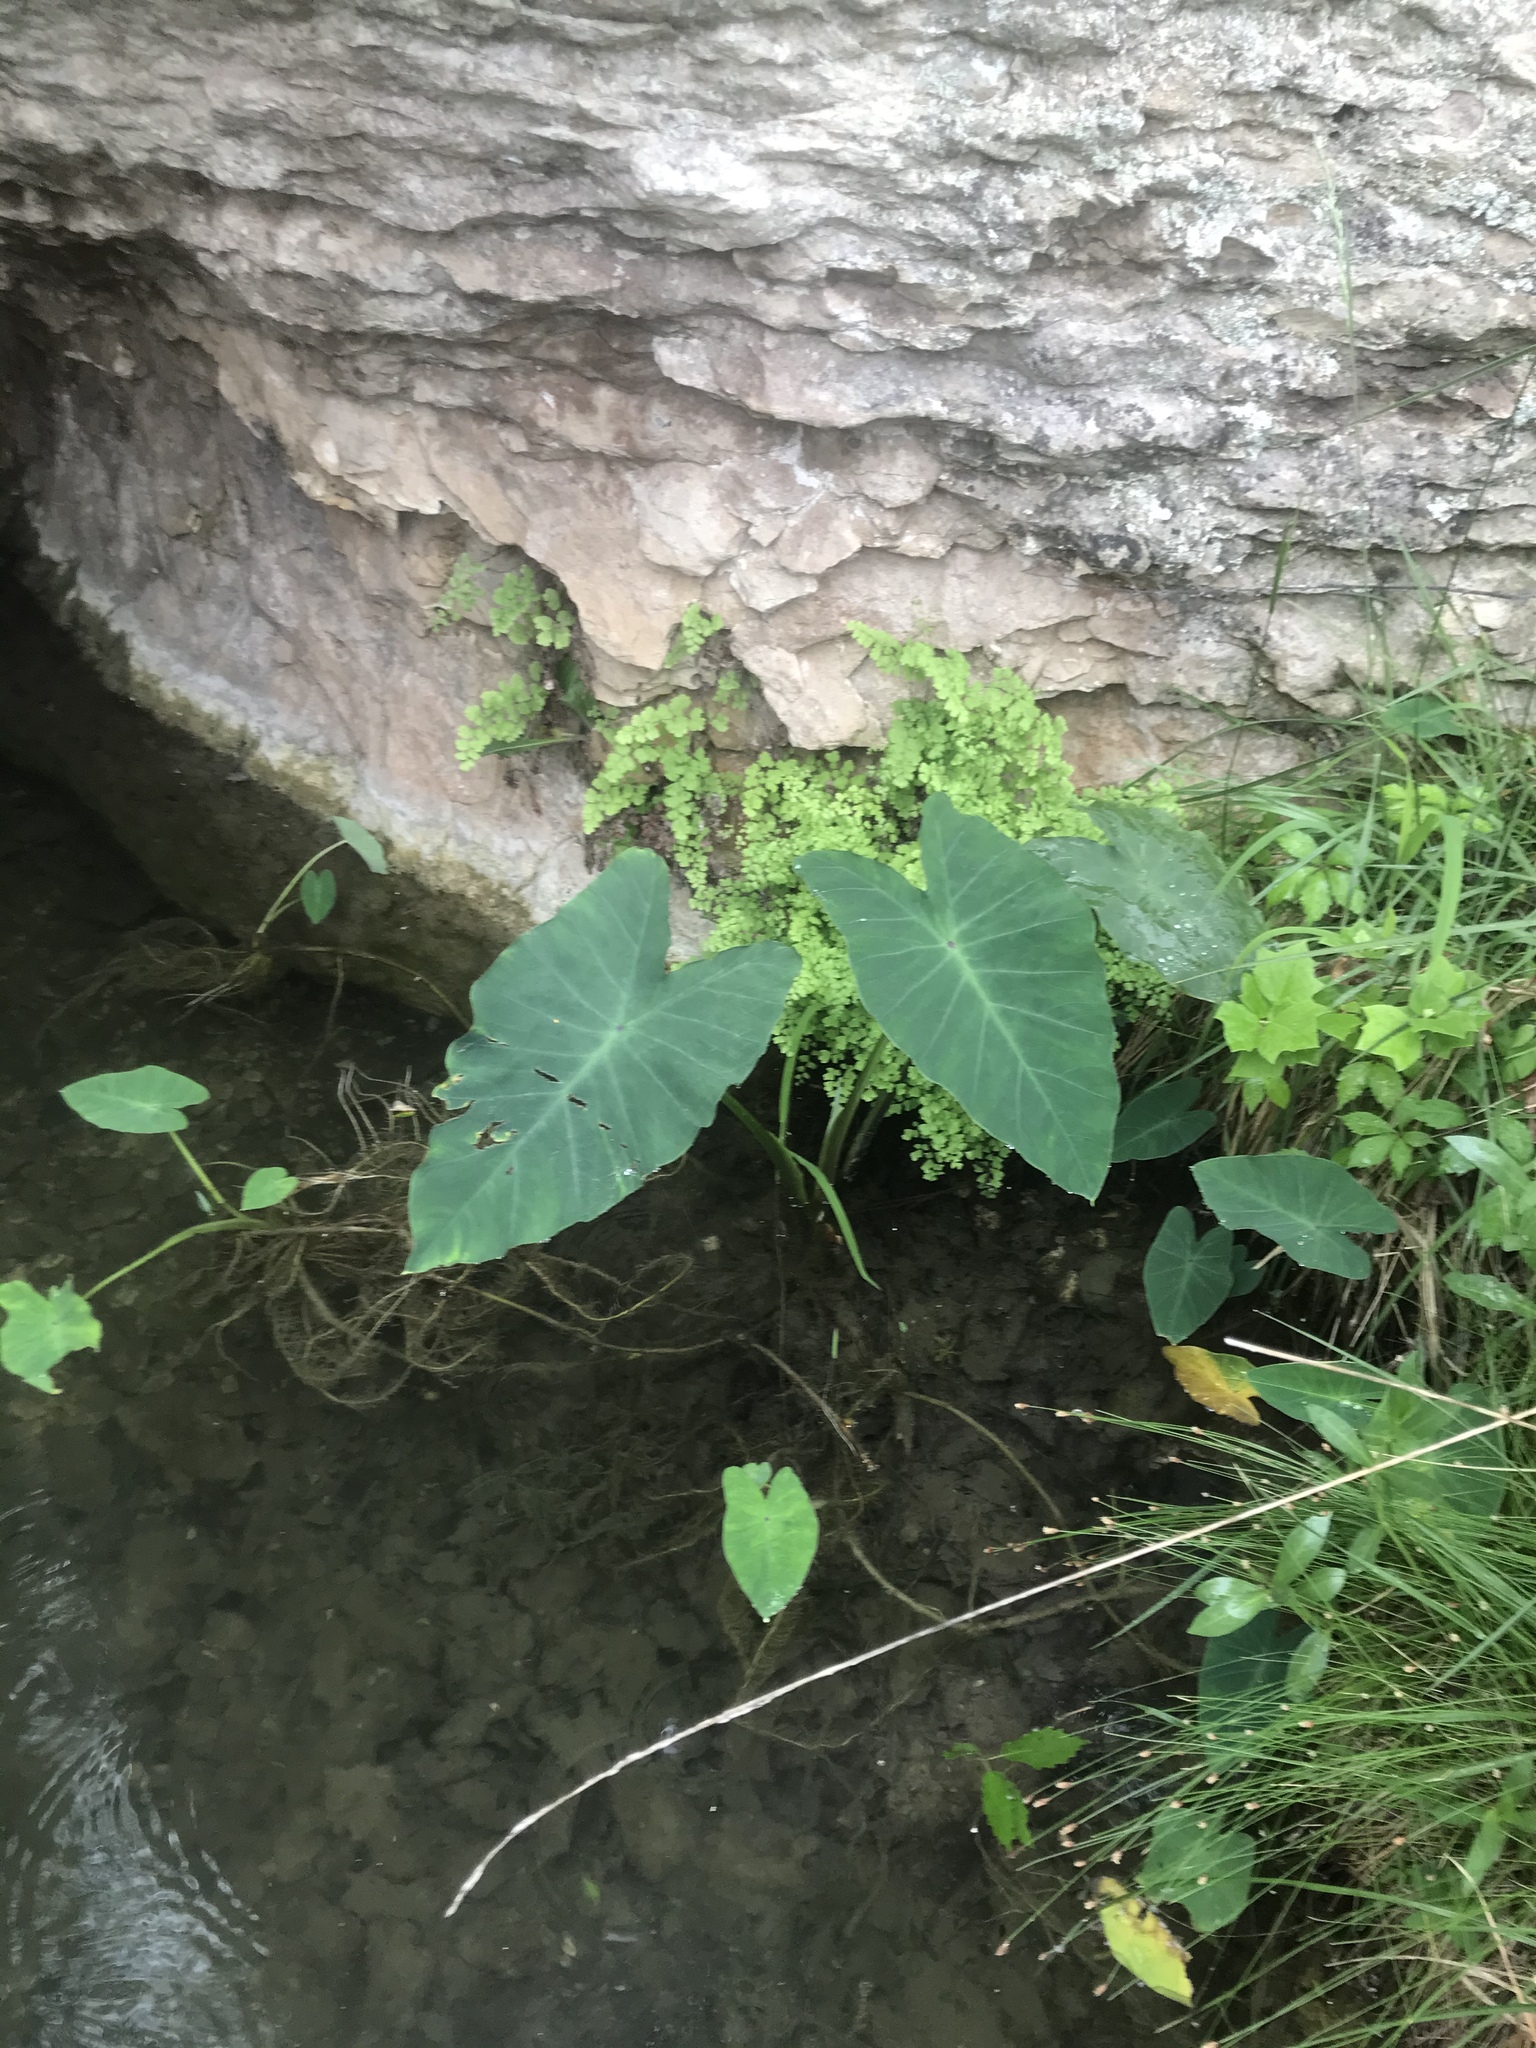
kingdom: Plantae
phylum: Tracheophyta
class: Liliopsida
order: Alismatales
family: Araceae
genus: Colocasia
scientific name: Colocasia esculenta
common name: Taro
